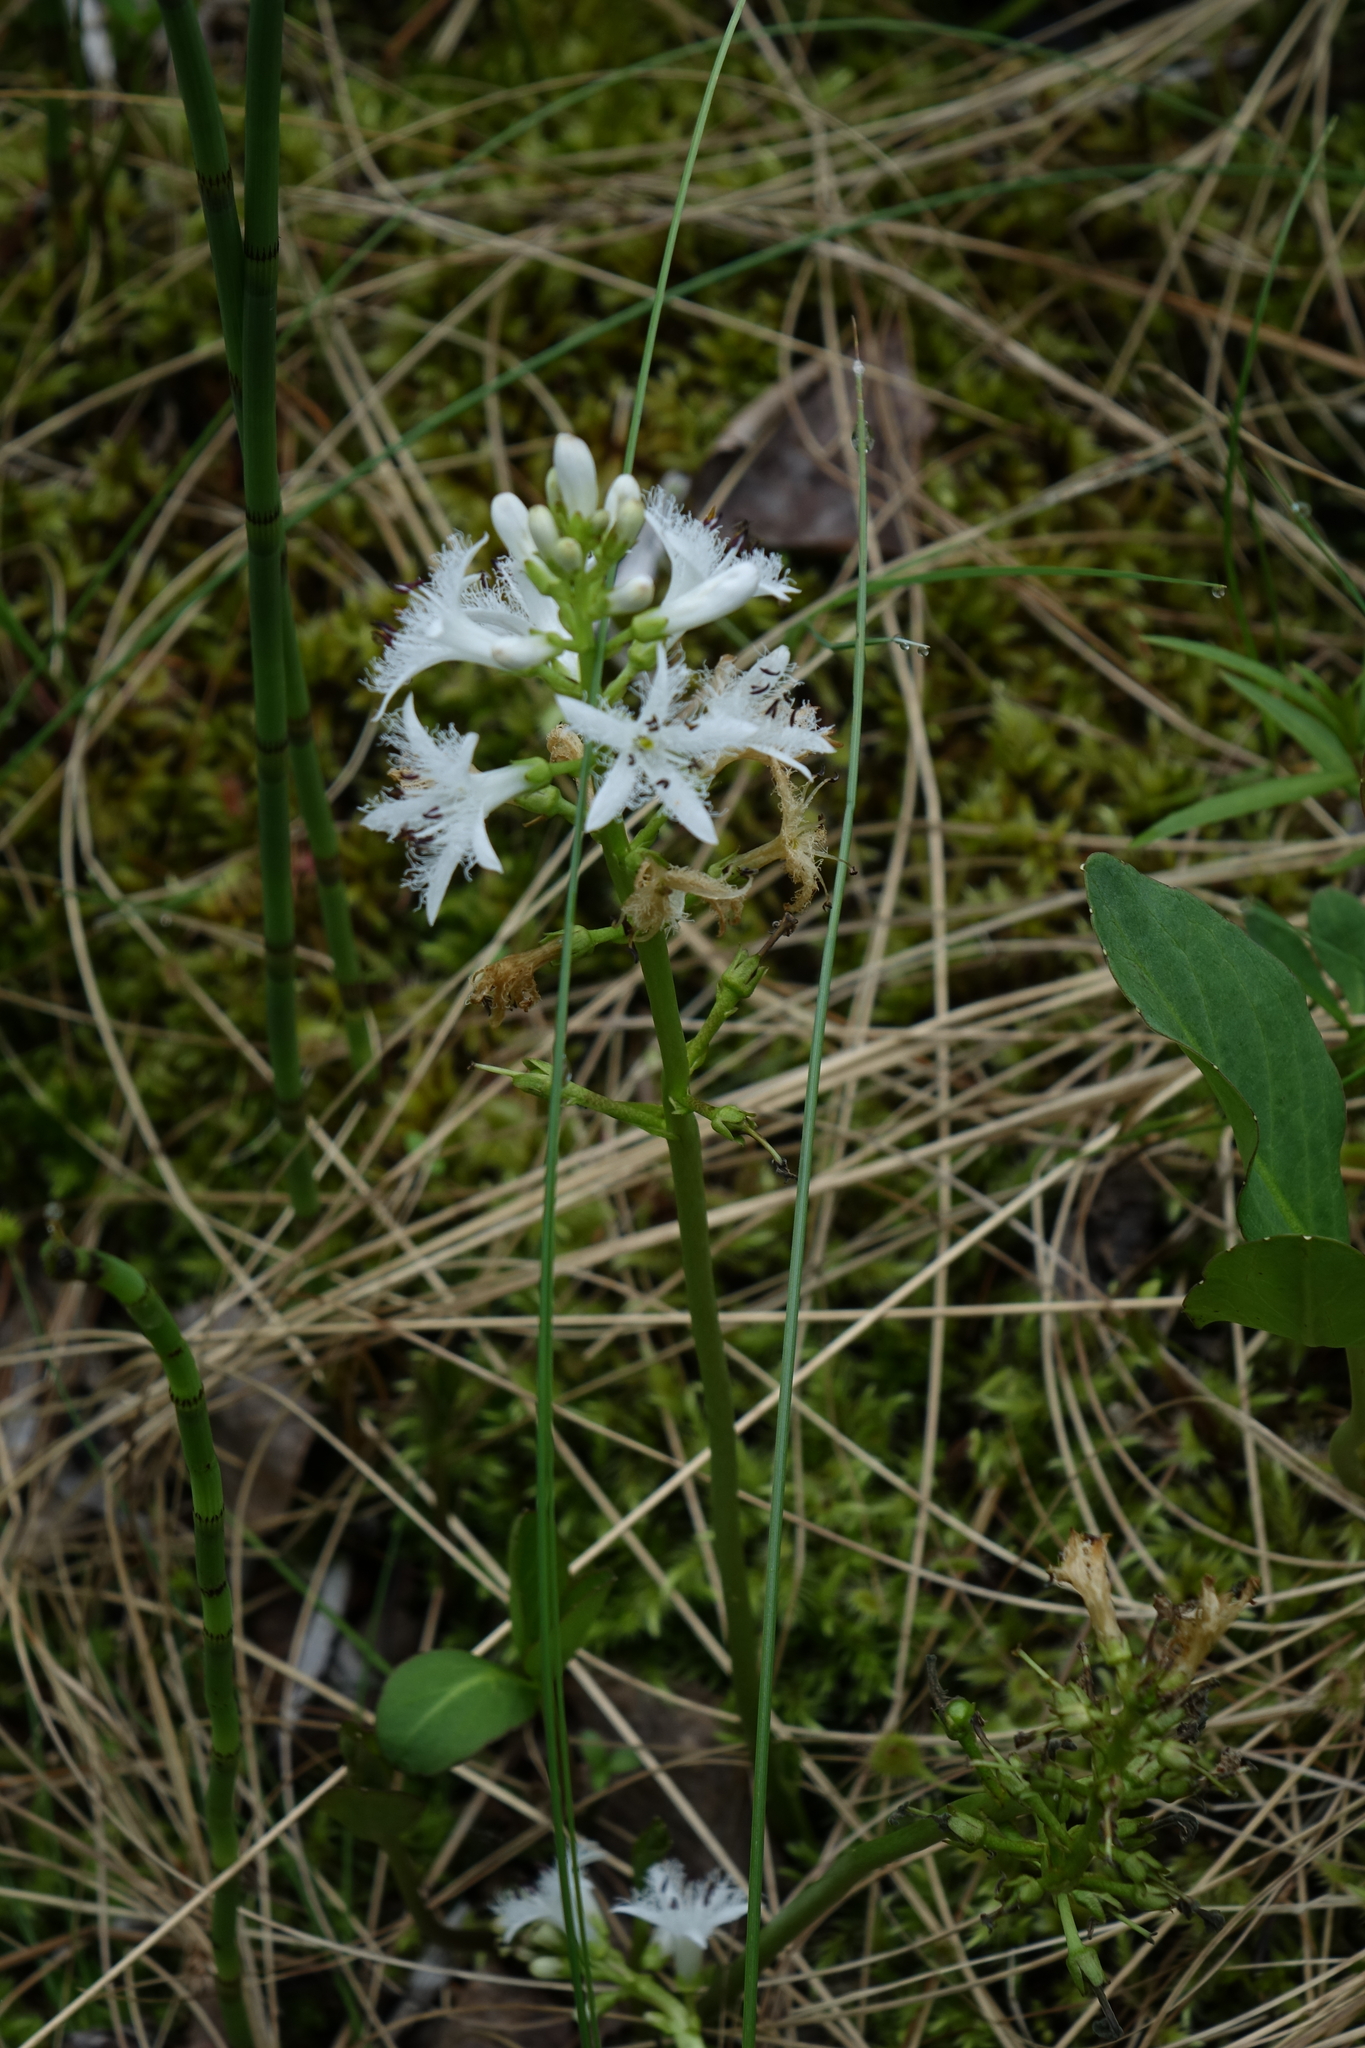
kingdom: Plantae
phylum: Tracheophyta
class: Magnoliopsida
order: Asterales
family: Menyanthaceae
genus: Menyanthes
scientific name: Menyanthes trifoliata
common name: Bogbean
